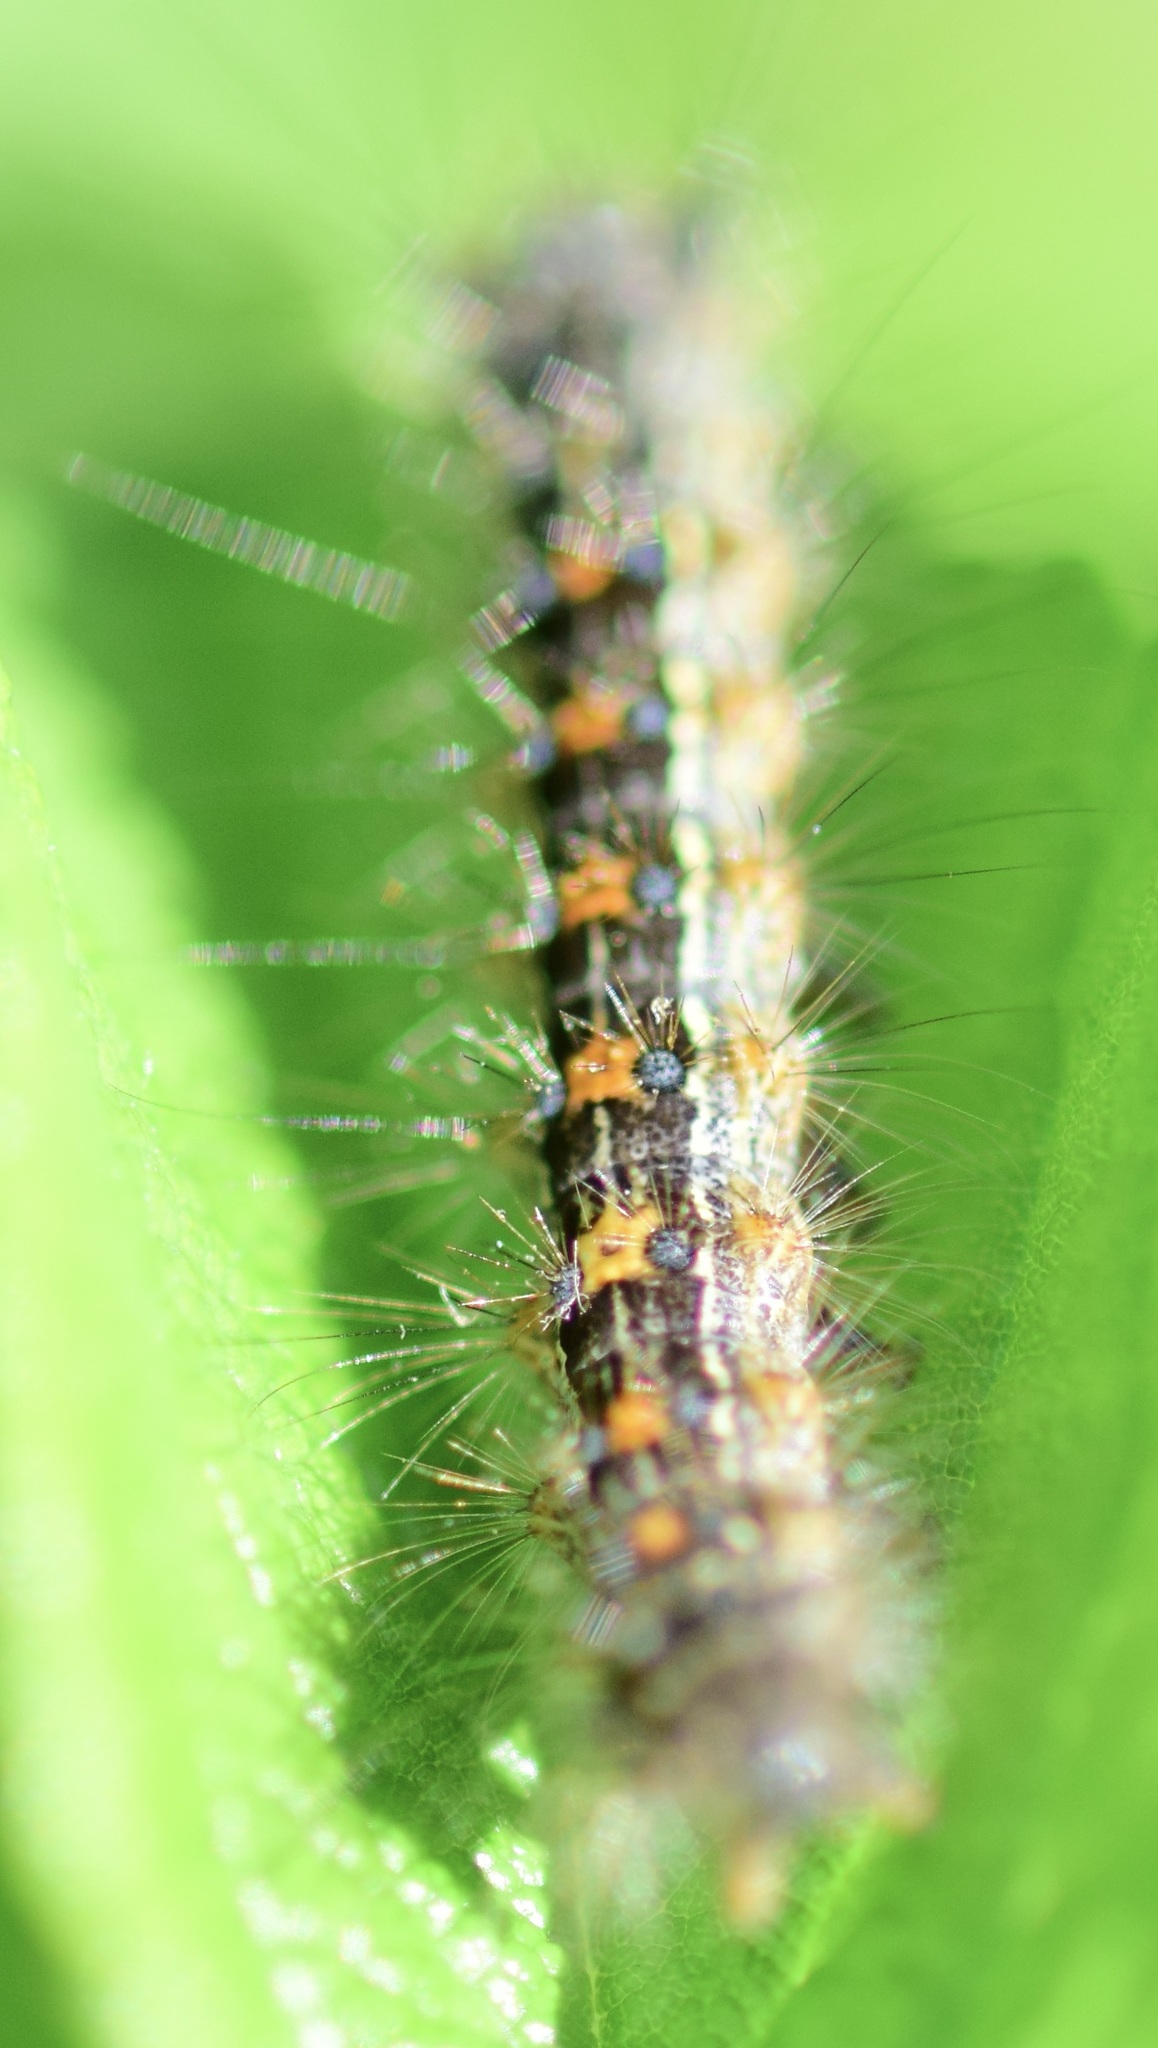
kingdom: Animalia
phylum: Arthropoda
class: Insecta
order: Lepidoptera
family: Erebidae
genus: Lymantria
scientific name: Lymantria dispar
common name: Gypsy moth
